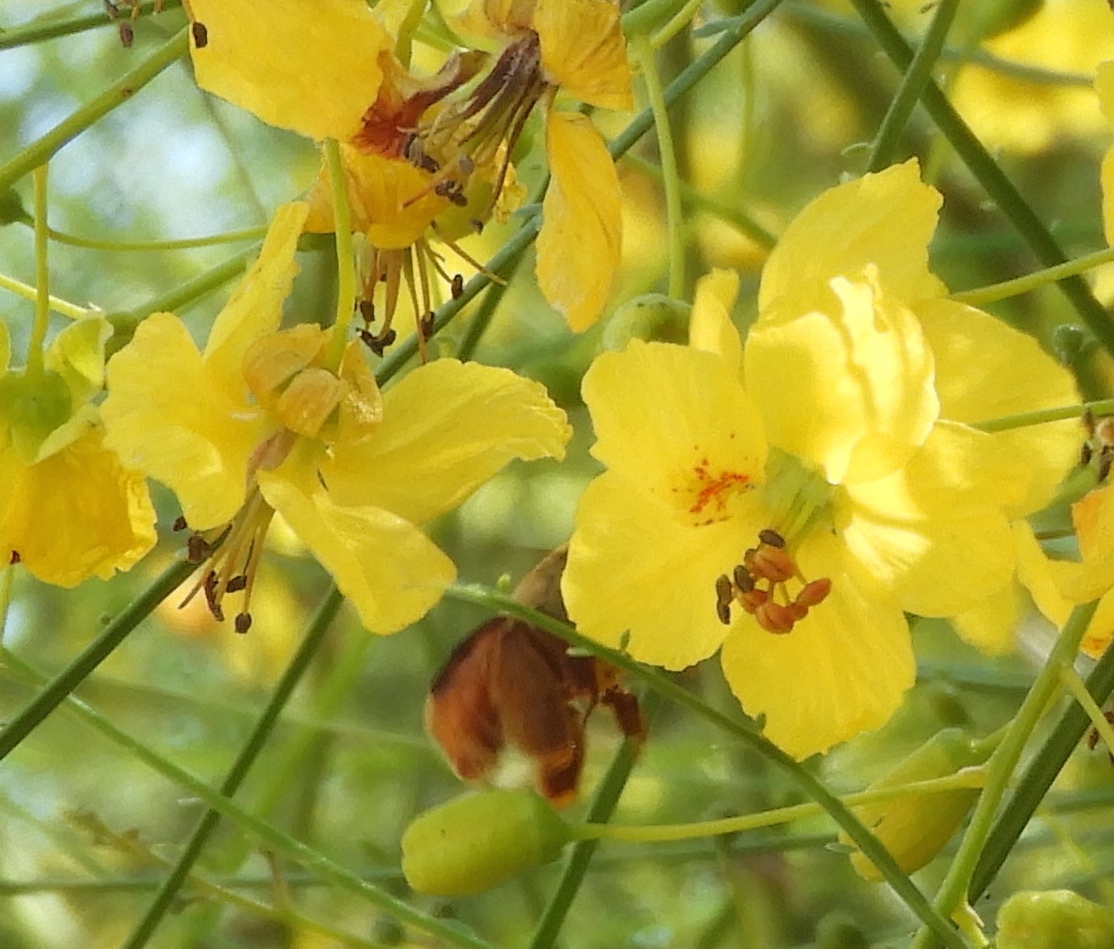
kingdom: Plantae
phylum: Tracheophyta
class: Magnoliopsida
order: Fabales
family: Fabaceae
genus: Parkinsonia
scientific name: Parkinsonia aculeata
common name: Jerusalem thorn
